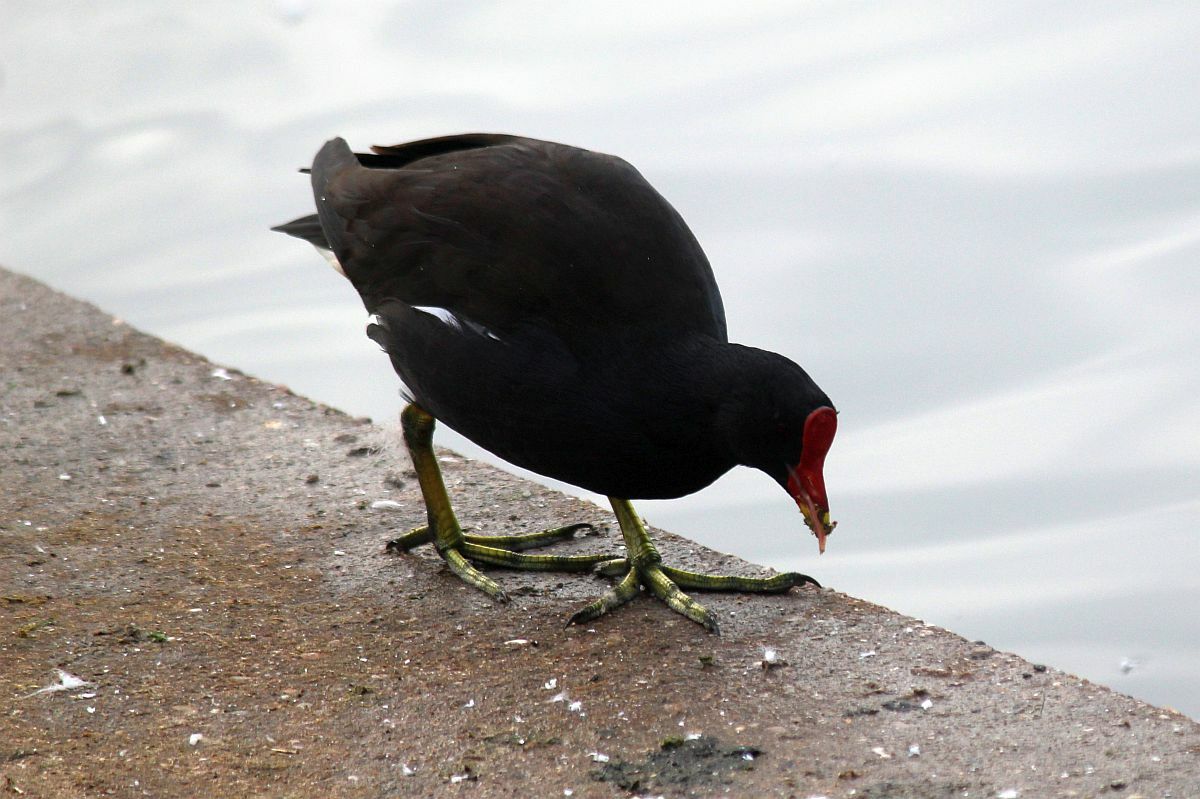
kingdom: Animalia
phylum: Chordata
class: Aves
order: Gruiformes
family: Rallidae
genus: Gallinula
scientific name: Gallinula chloropus
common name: Common moorhen
